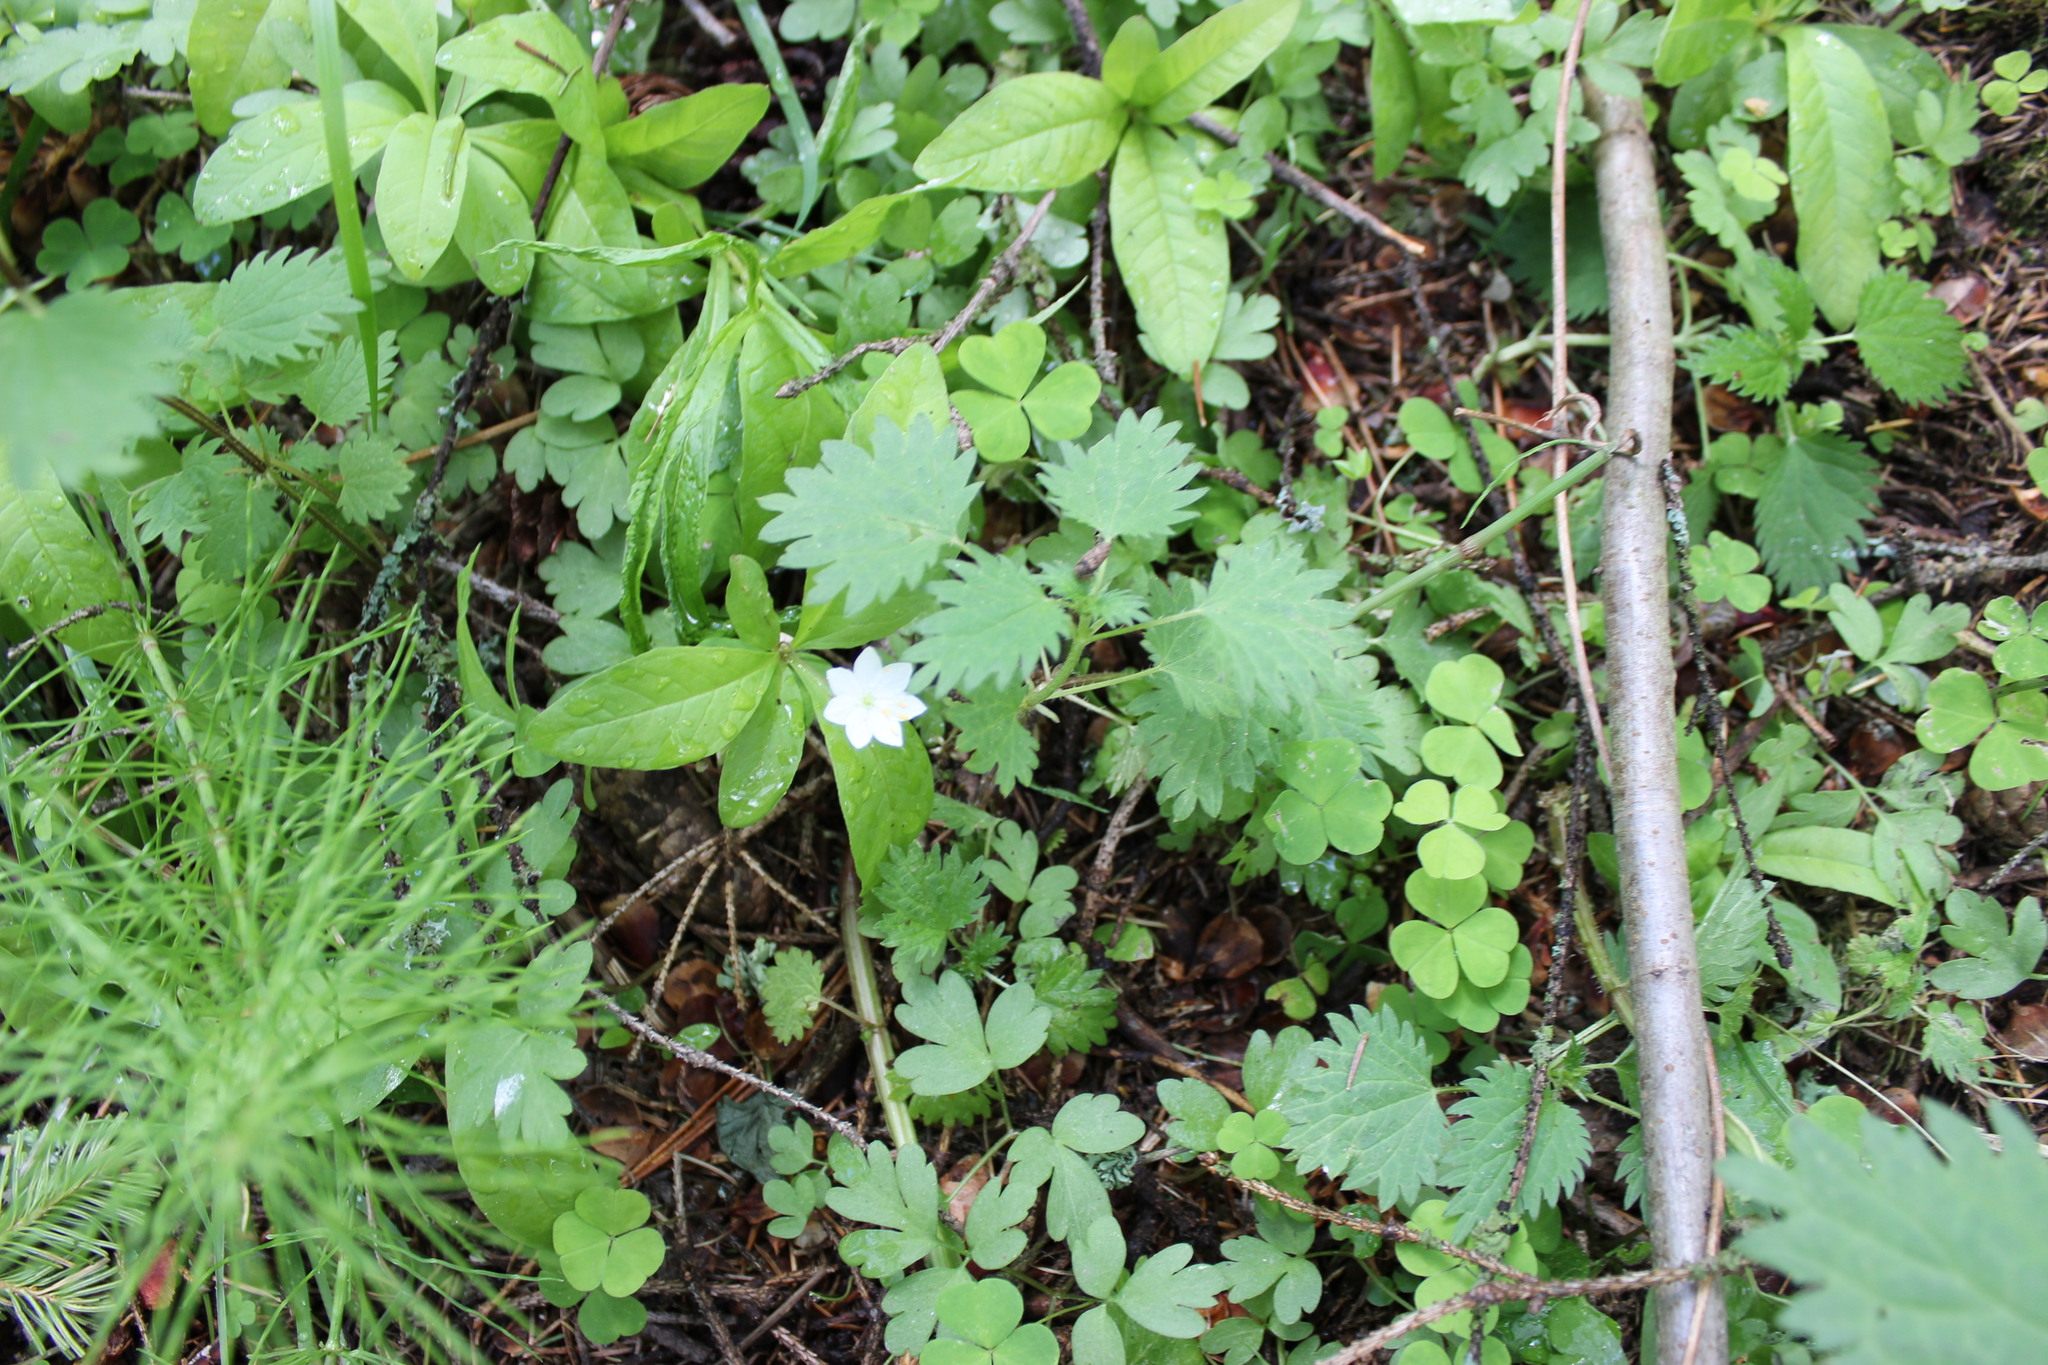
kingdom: Plantae
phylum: Tracheophyta
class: Magnoliopsida
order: Ericales
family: Primulaceae
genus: Lysimachia
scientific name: Lysimachia europaea
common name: Arctic starflower
